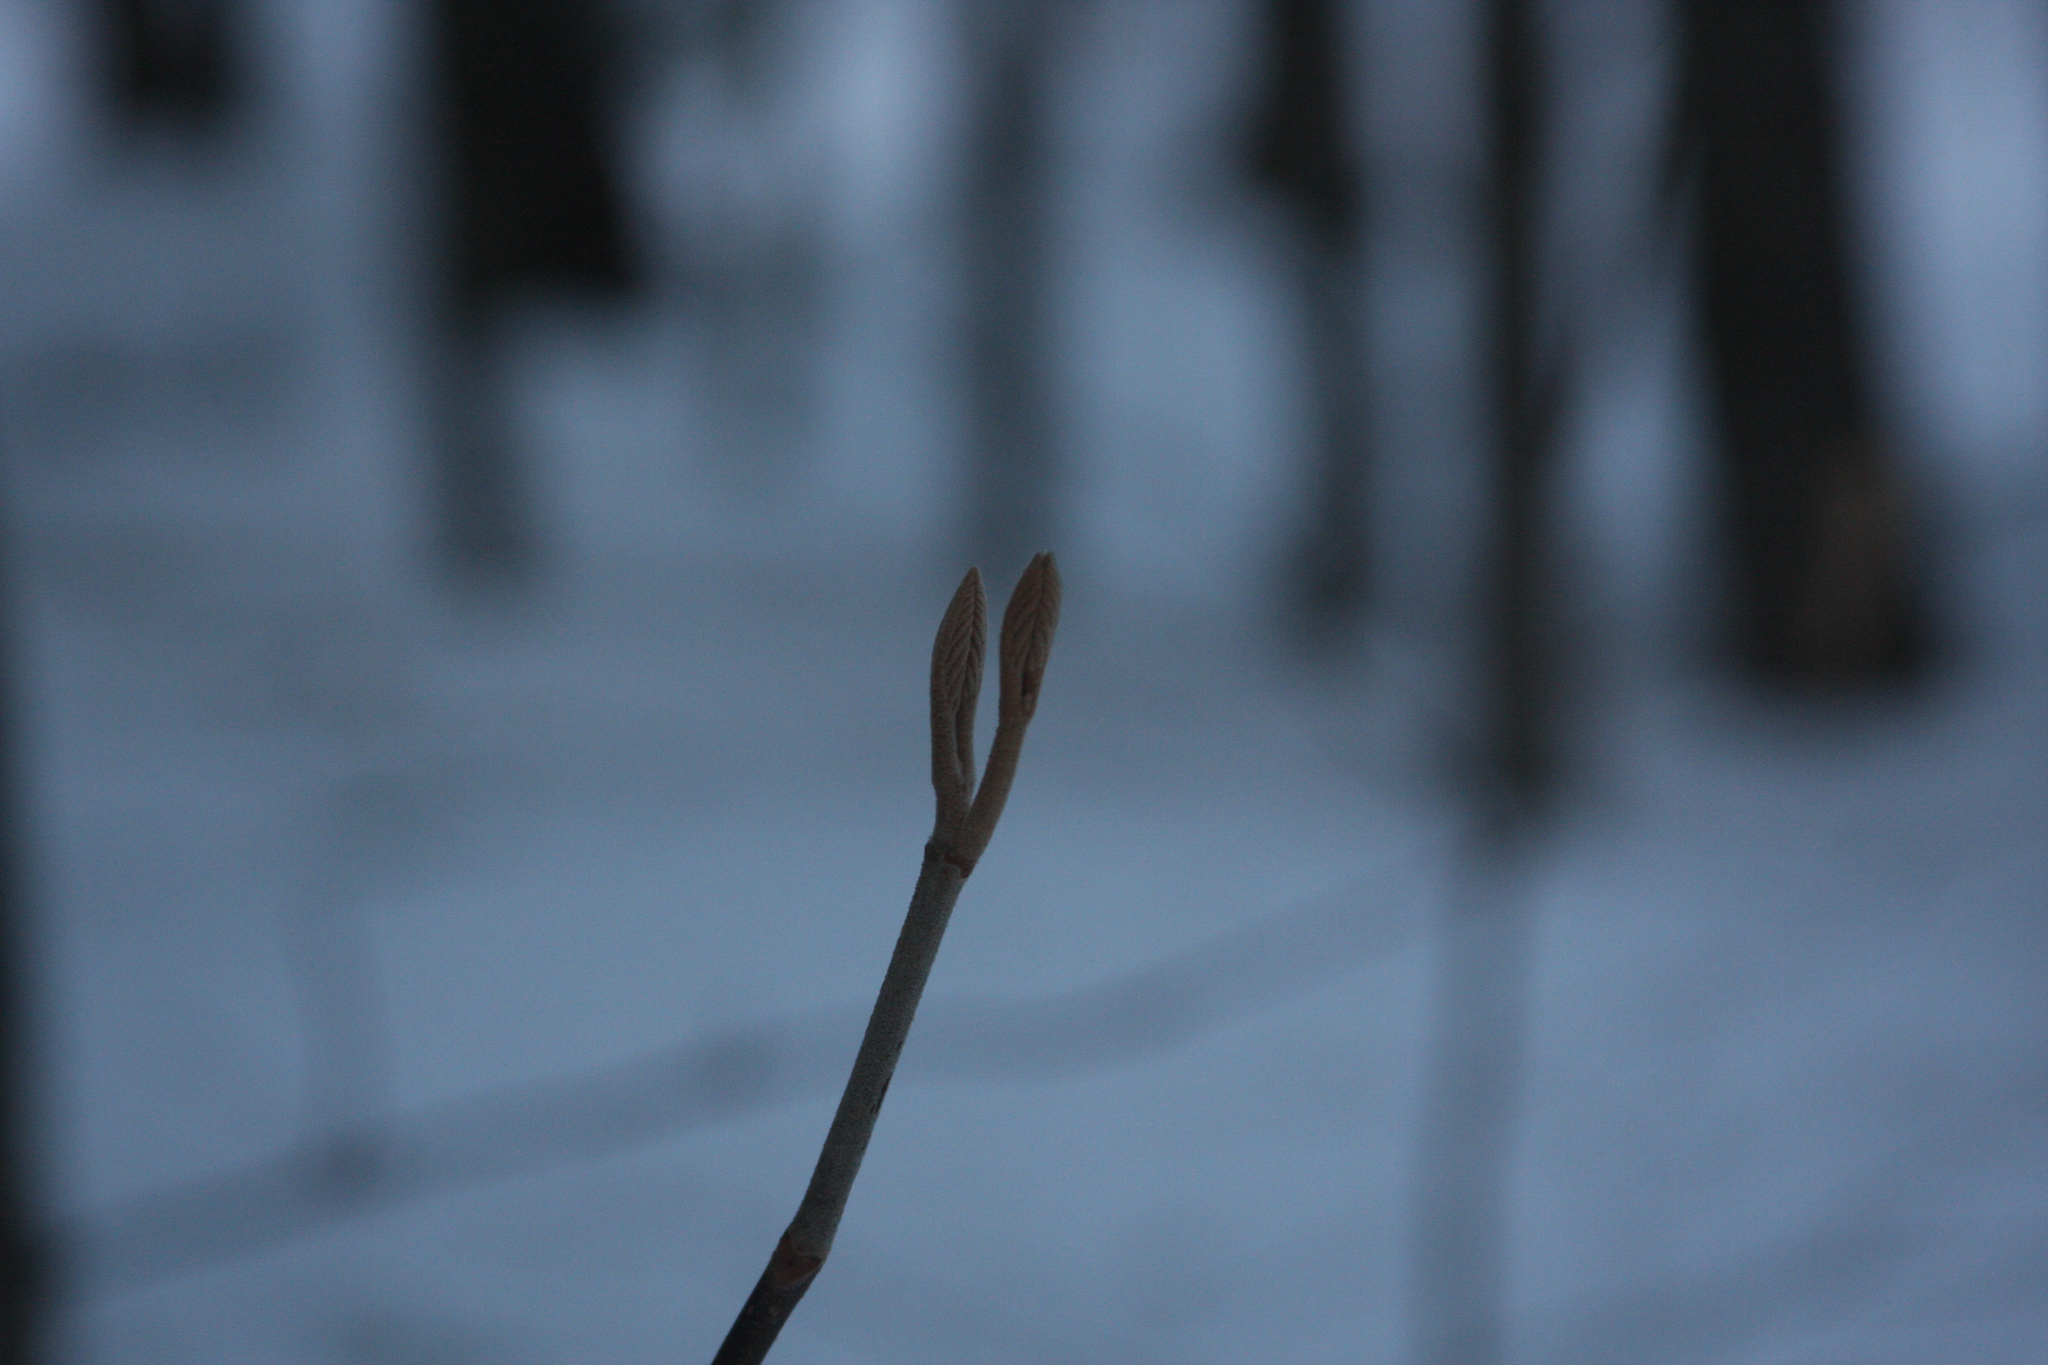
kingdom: Plantae
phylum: Tracheophyta
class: Magnoliopsida
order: Dipsacales
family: Viburnaceae
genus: Viburnum
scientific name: Viburnum lantanoides
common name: Hobblebush
